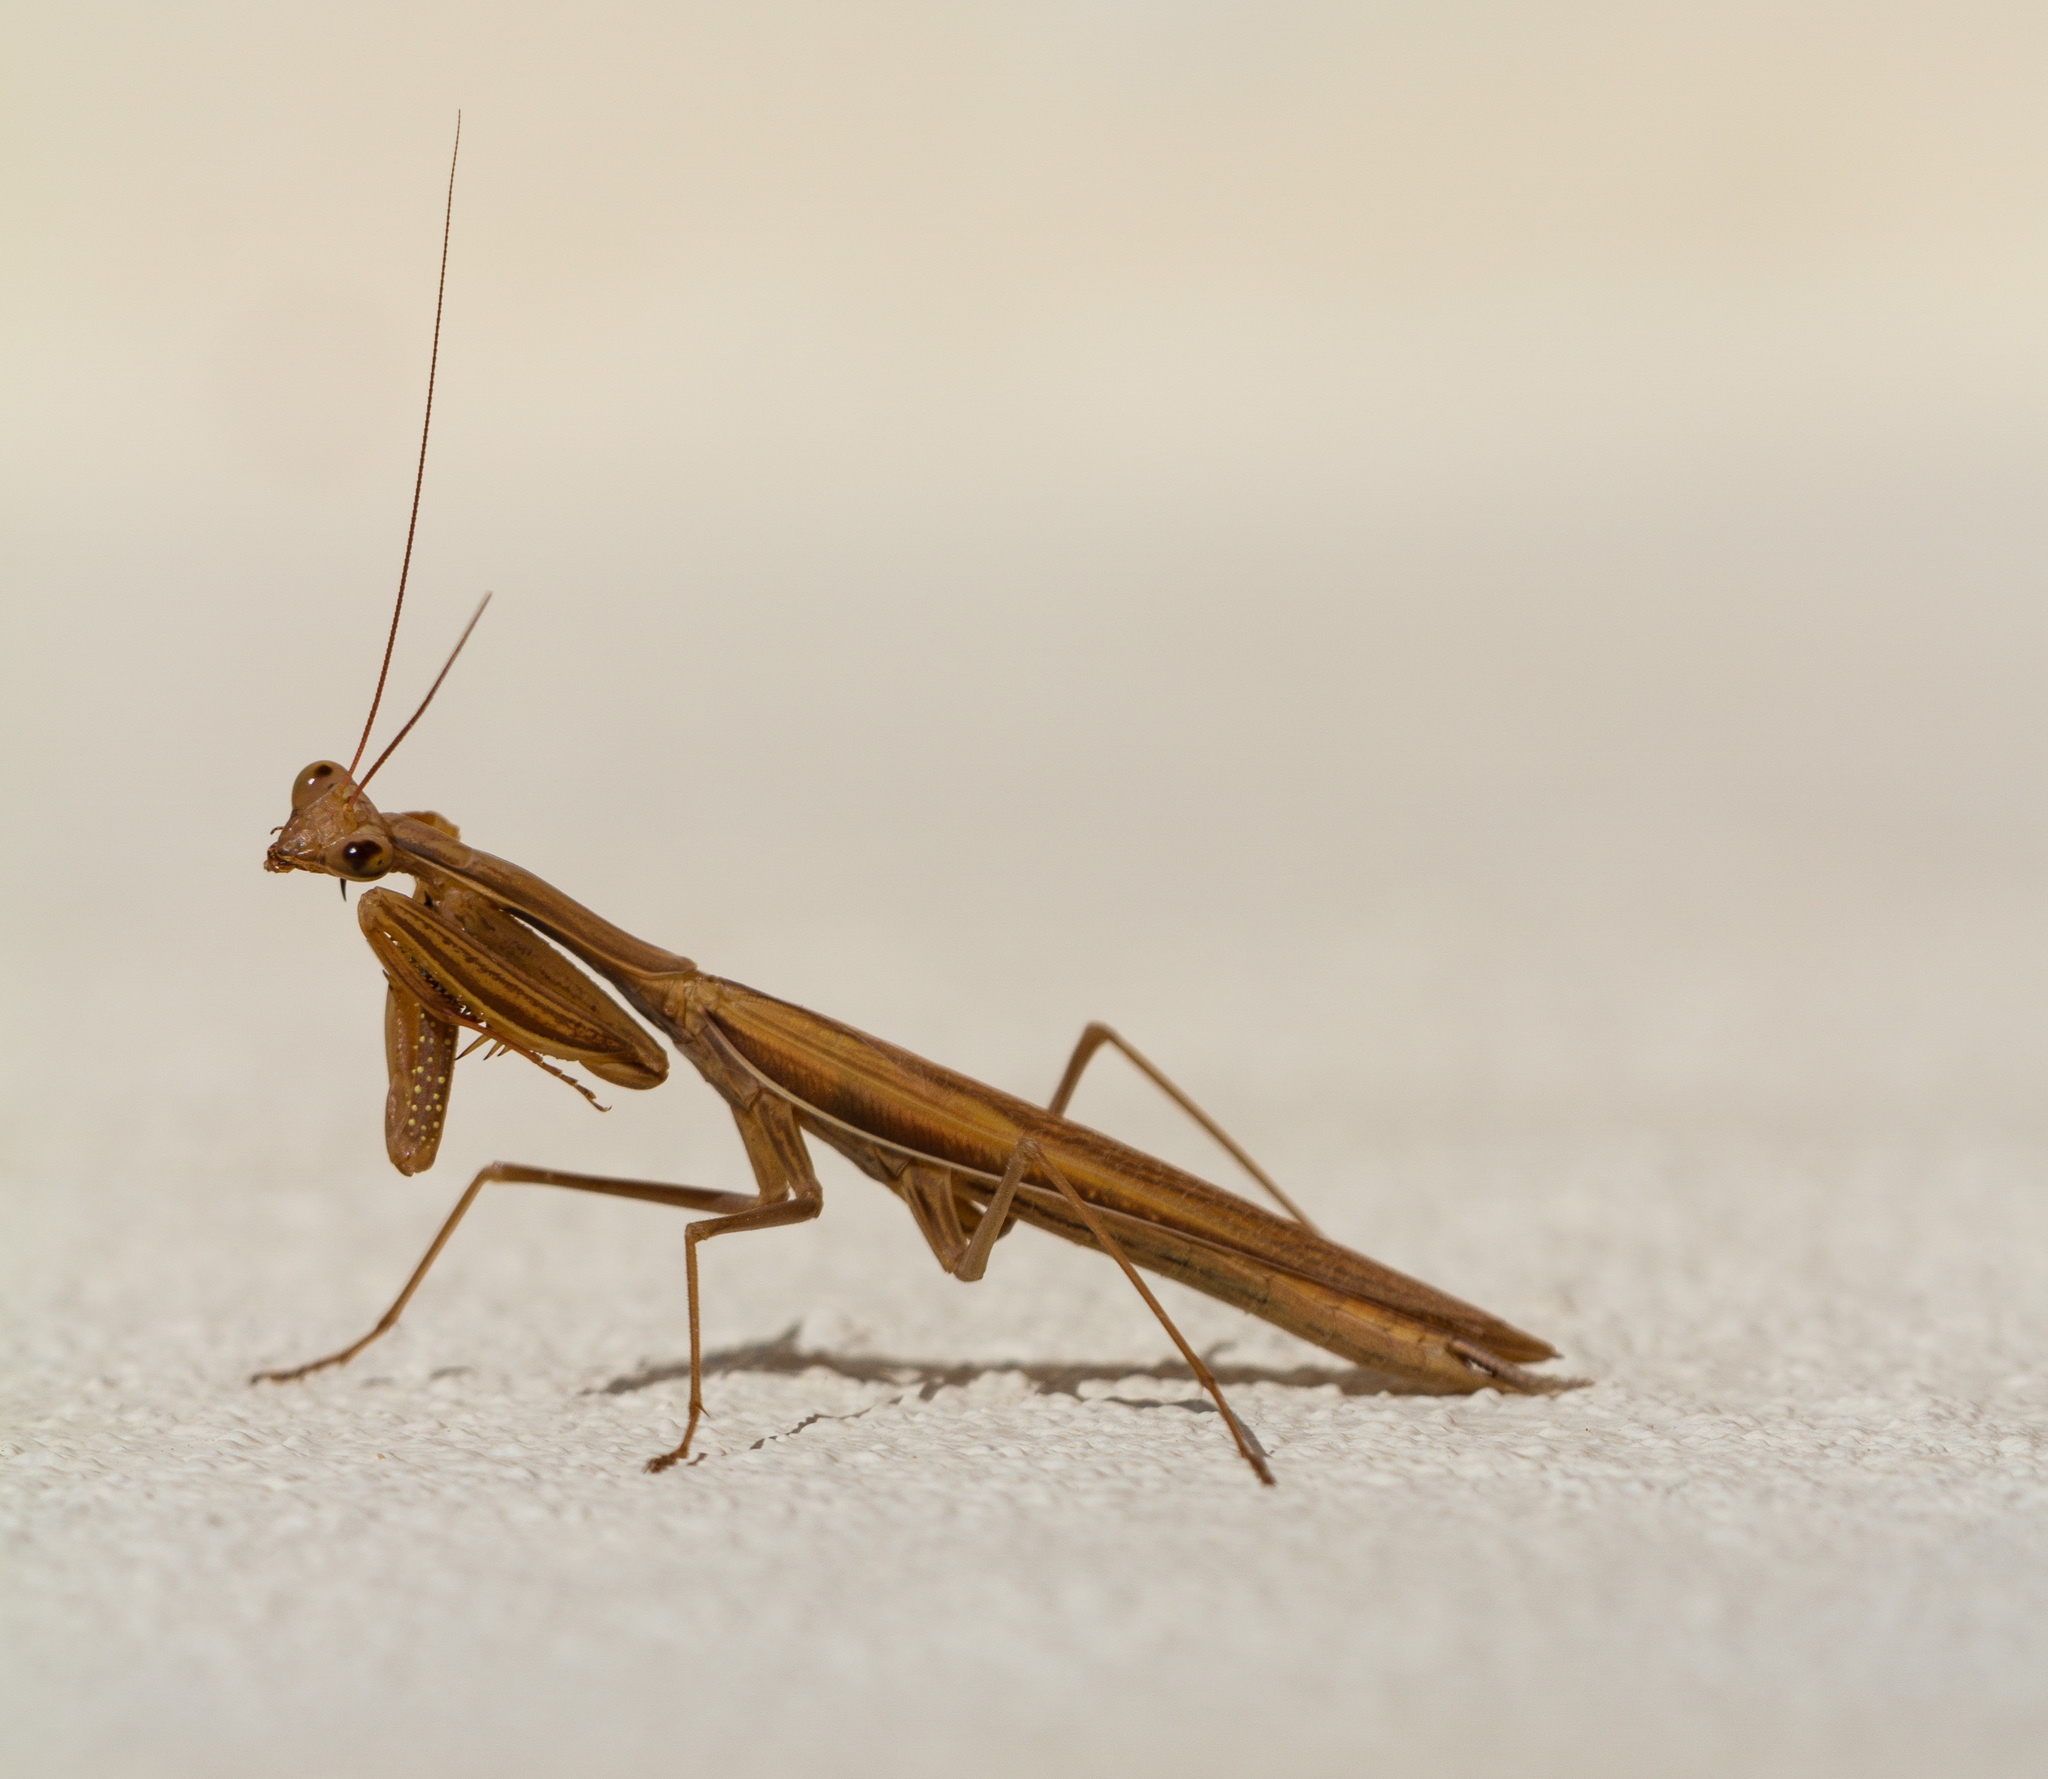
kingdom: Animalia
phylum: Arthropoda
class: Insecta
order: Mantodea
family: Mantidae
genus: Mantis
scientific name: Mantis religiosa
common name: Praying mantis
